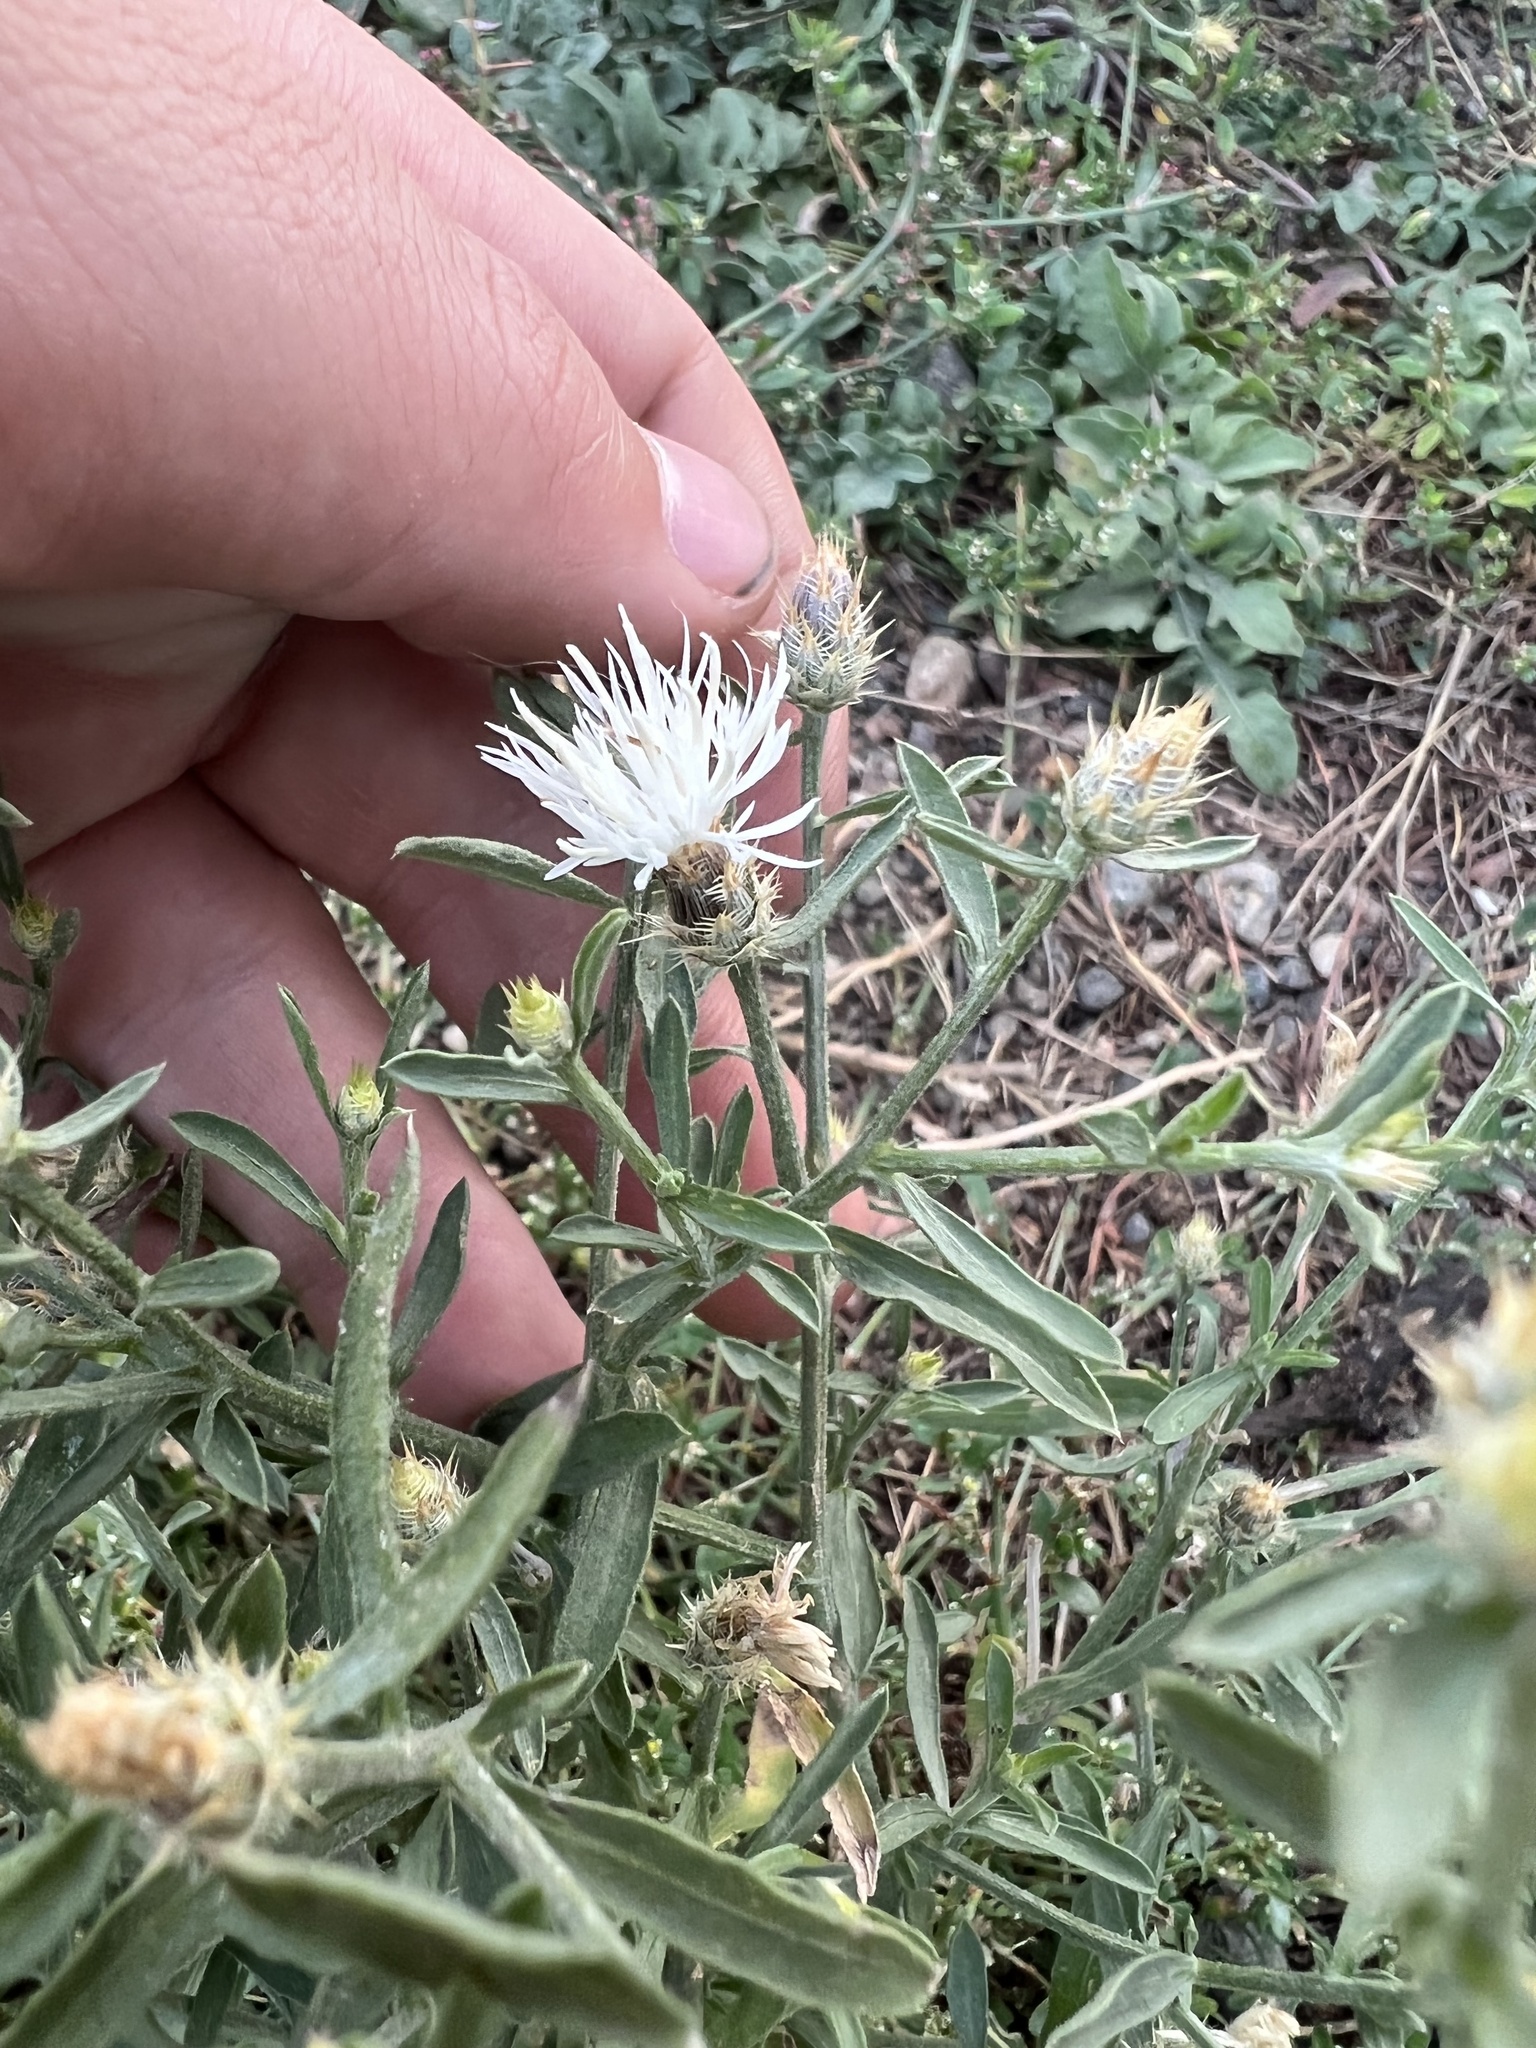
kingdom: Plantae
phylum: Tracheophyta
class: Magnoliopsida
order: Asterales
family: Asteraceae
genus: Centaurea
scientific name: Centaurea diffusa
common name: Diffuse knapweed
